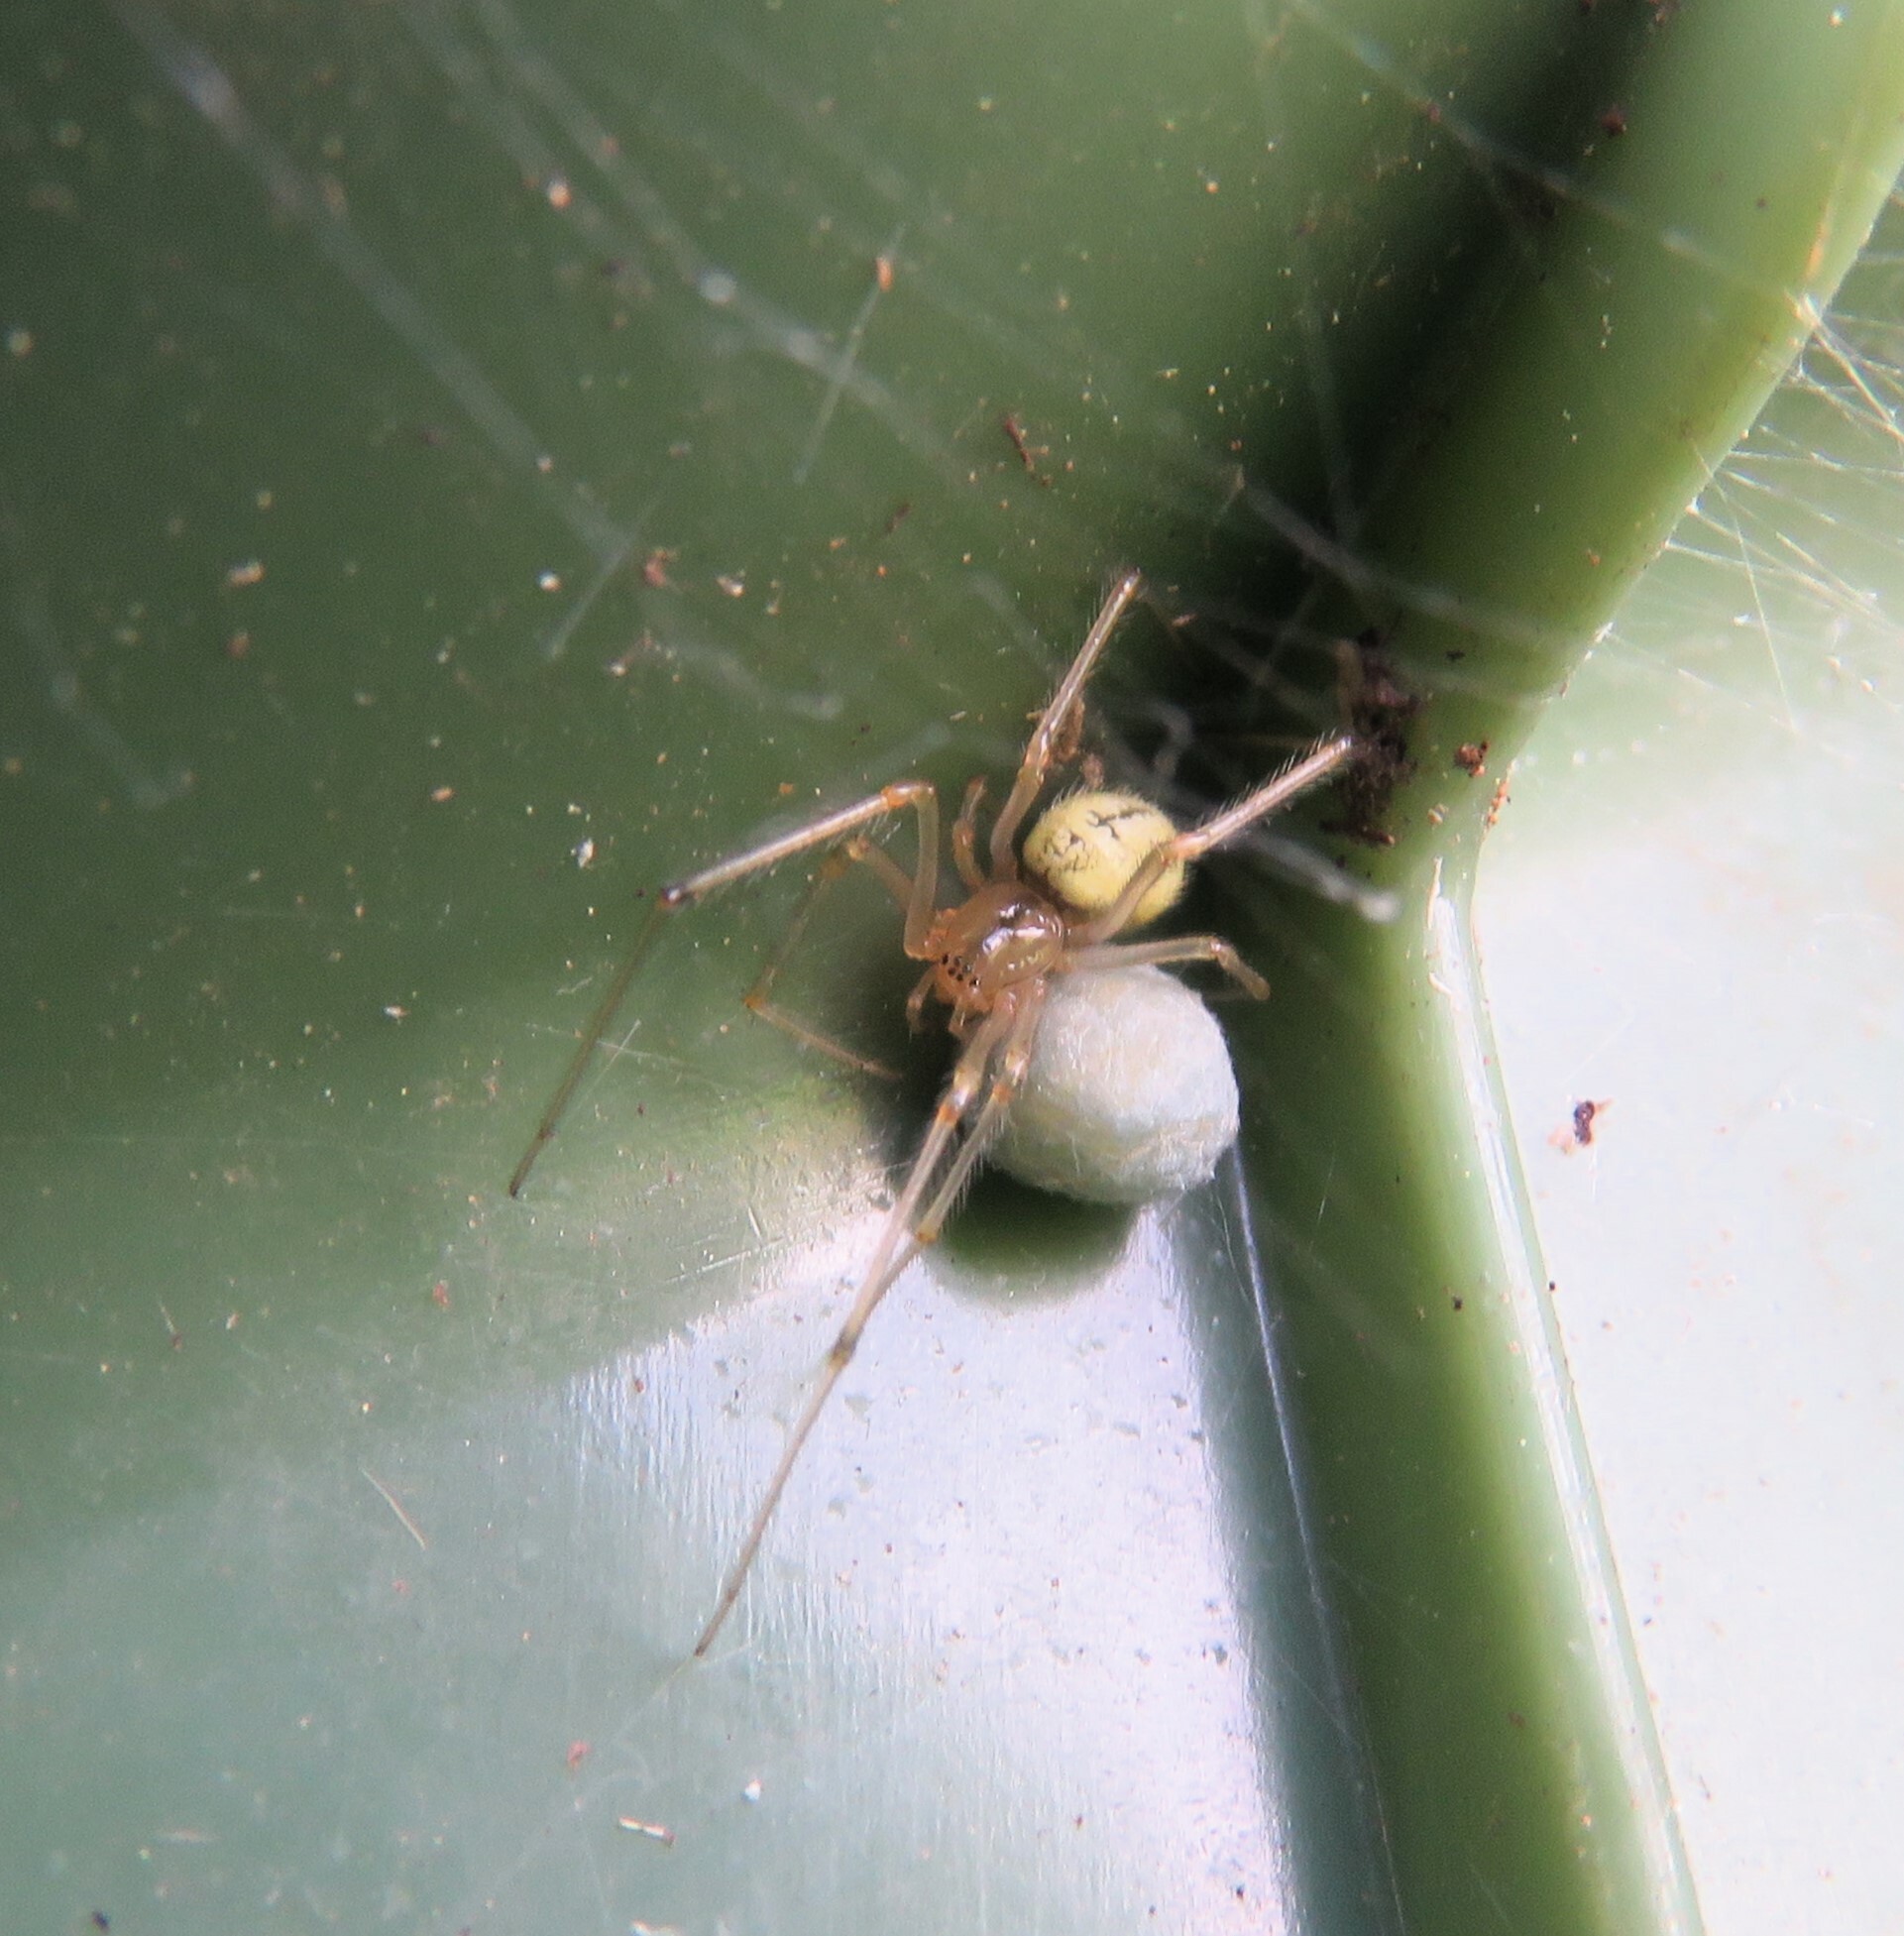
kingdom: Animalia
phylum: Arthropoda
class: Arachnida
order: Araneae
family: Theridiidae
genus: Enoplognatha
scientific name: Enoplognatha ovata
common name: Common candy-striped spider
